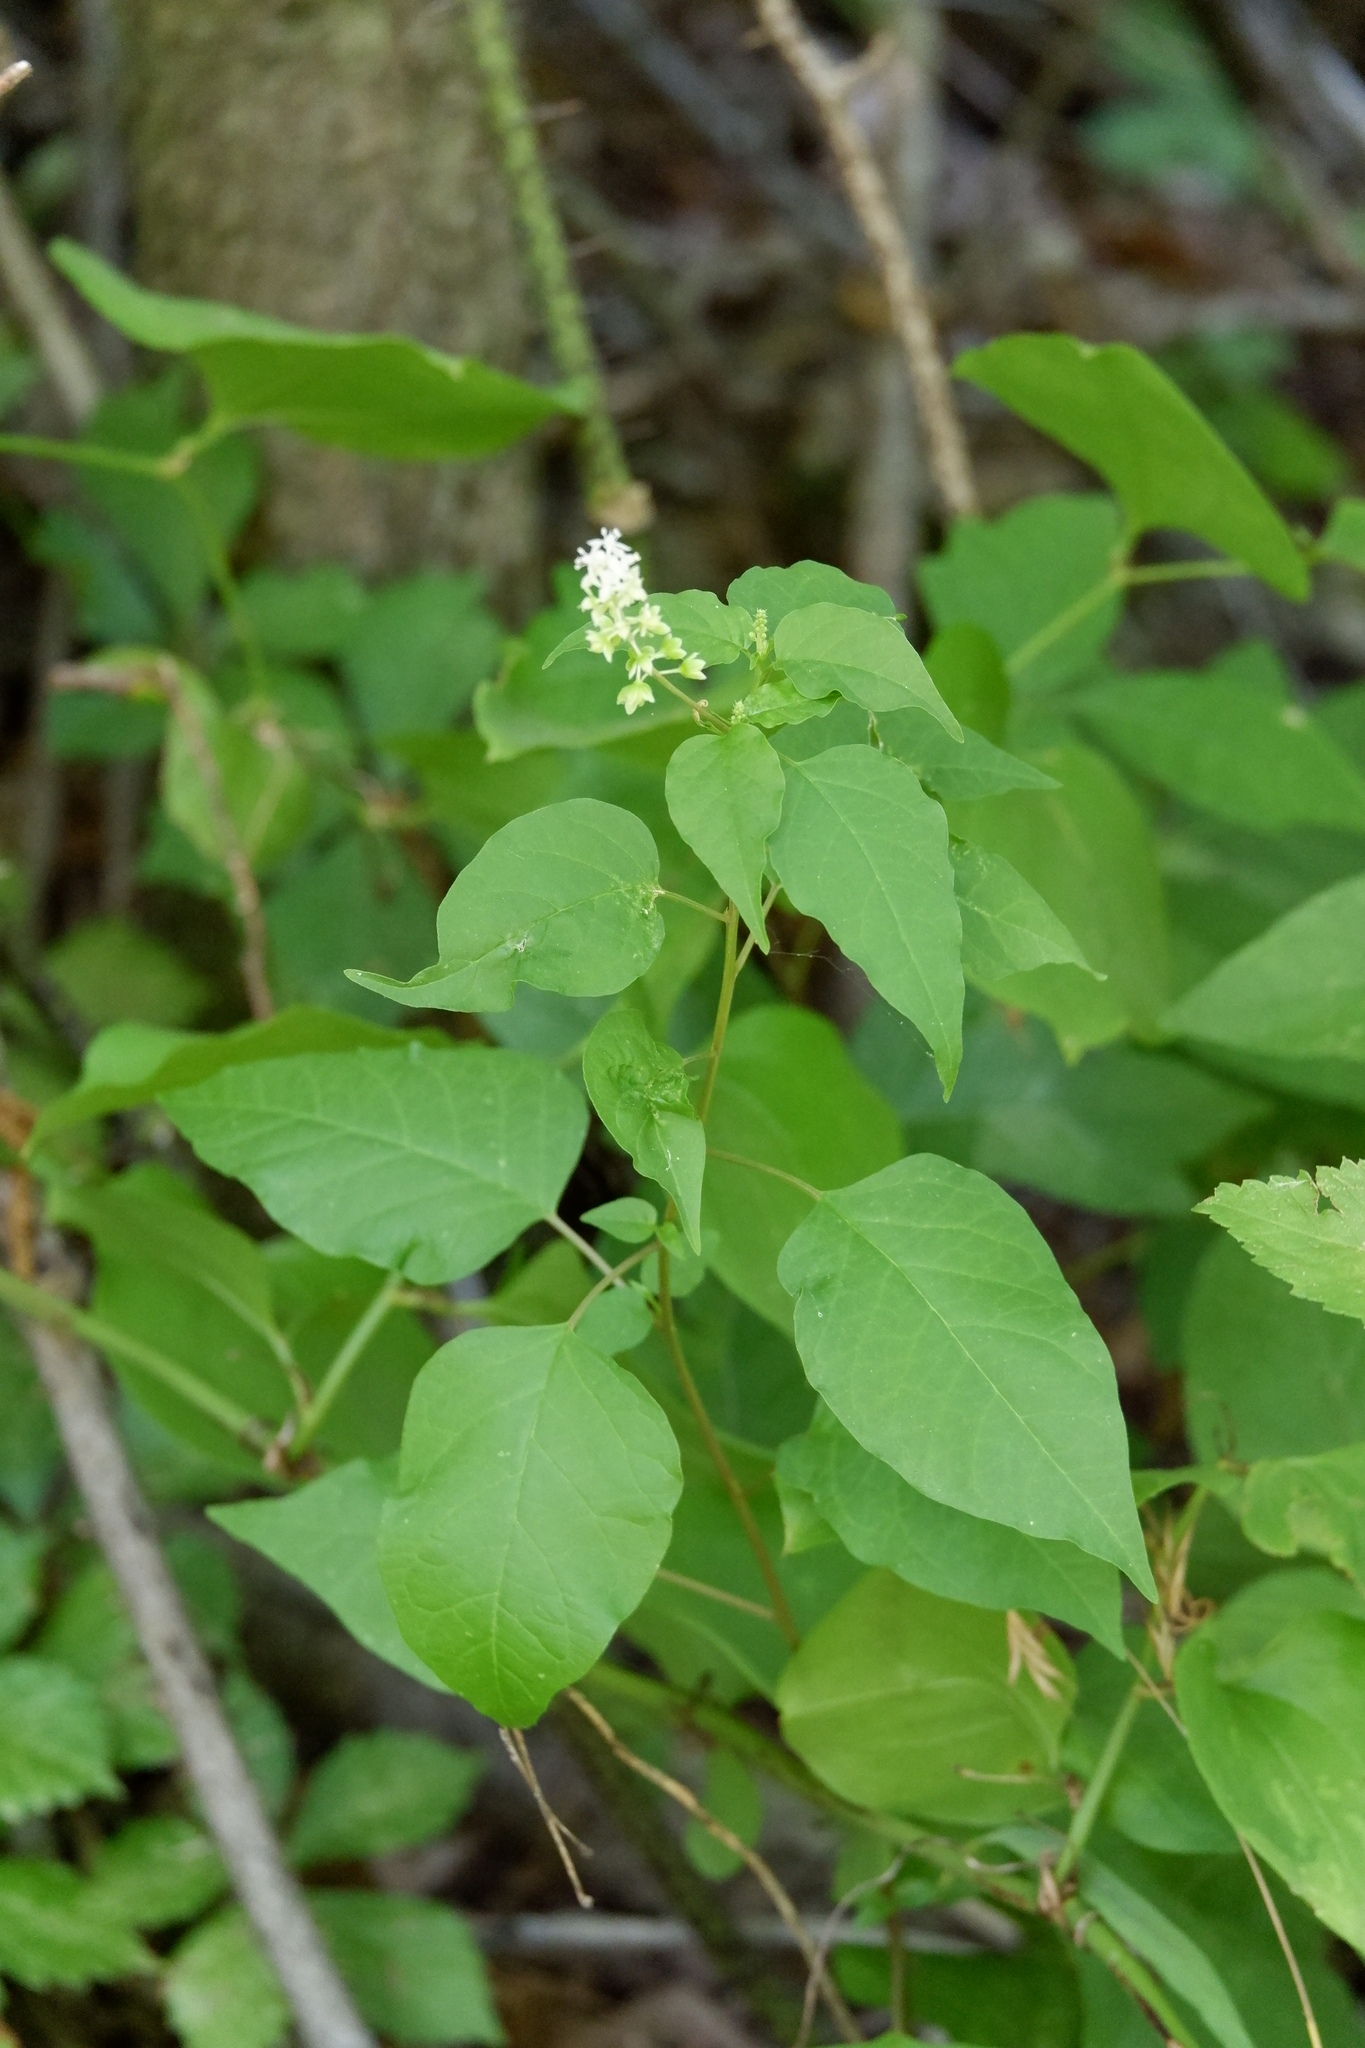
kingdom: Plantae
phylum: Tracheophyta
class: Magnoliopsida
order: Caryophyllales
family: Phytolaccaceae
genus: Rivina
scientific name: Rivina humilis
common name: Rougeplant
